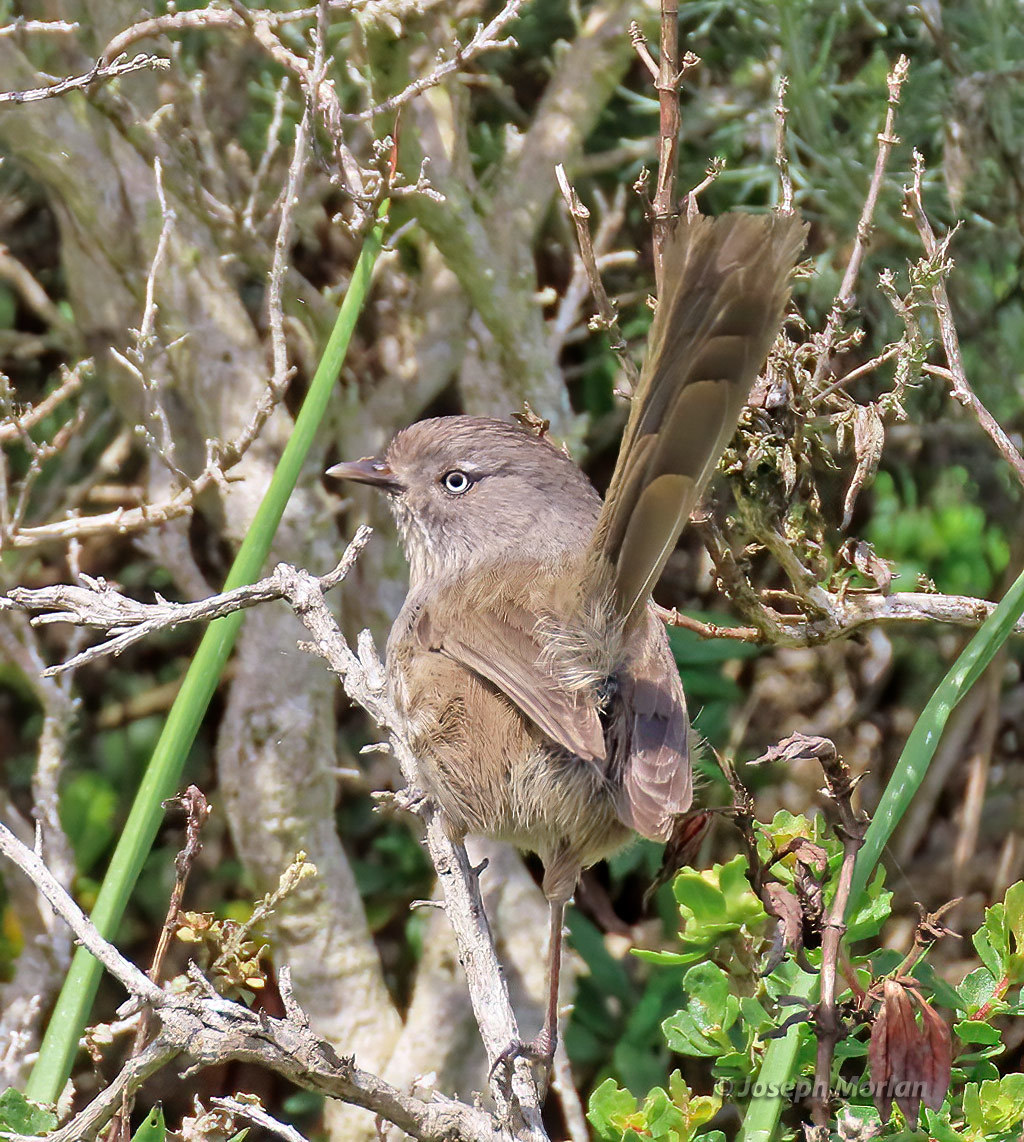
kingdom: Animalia
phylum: Chordata
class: Aves
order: Passeriformes
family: Sylviidae
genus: Chamaea
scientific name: Chamaea fasciata
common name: Wrentit
